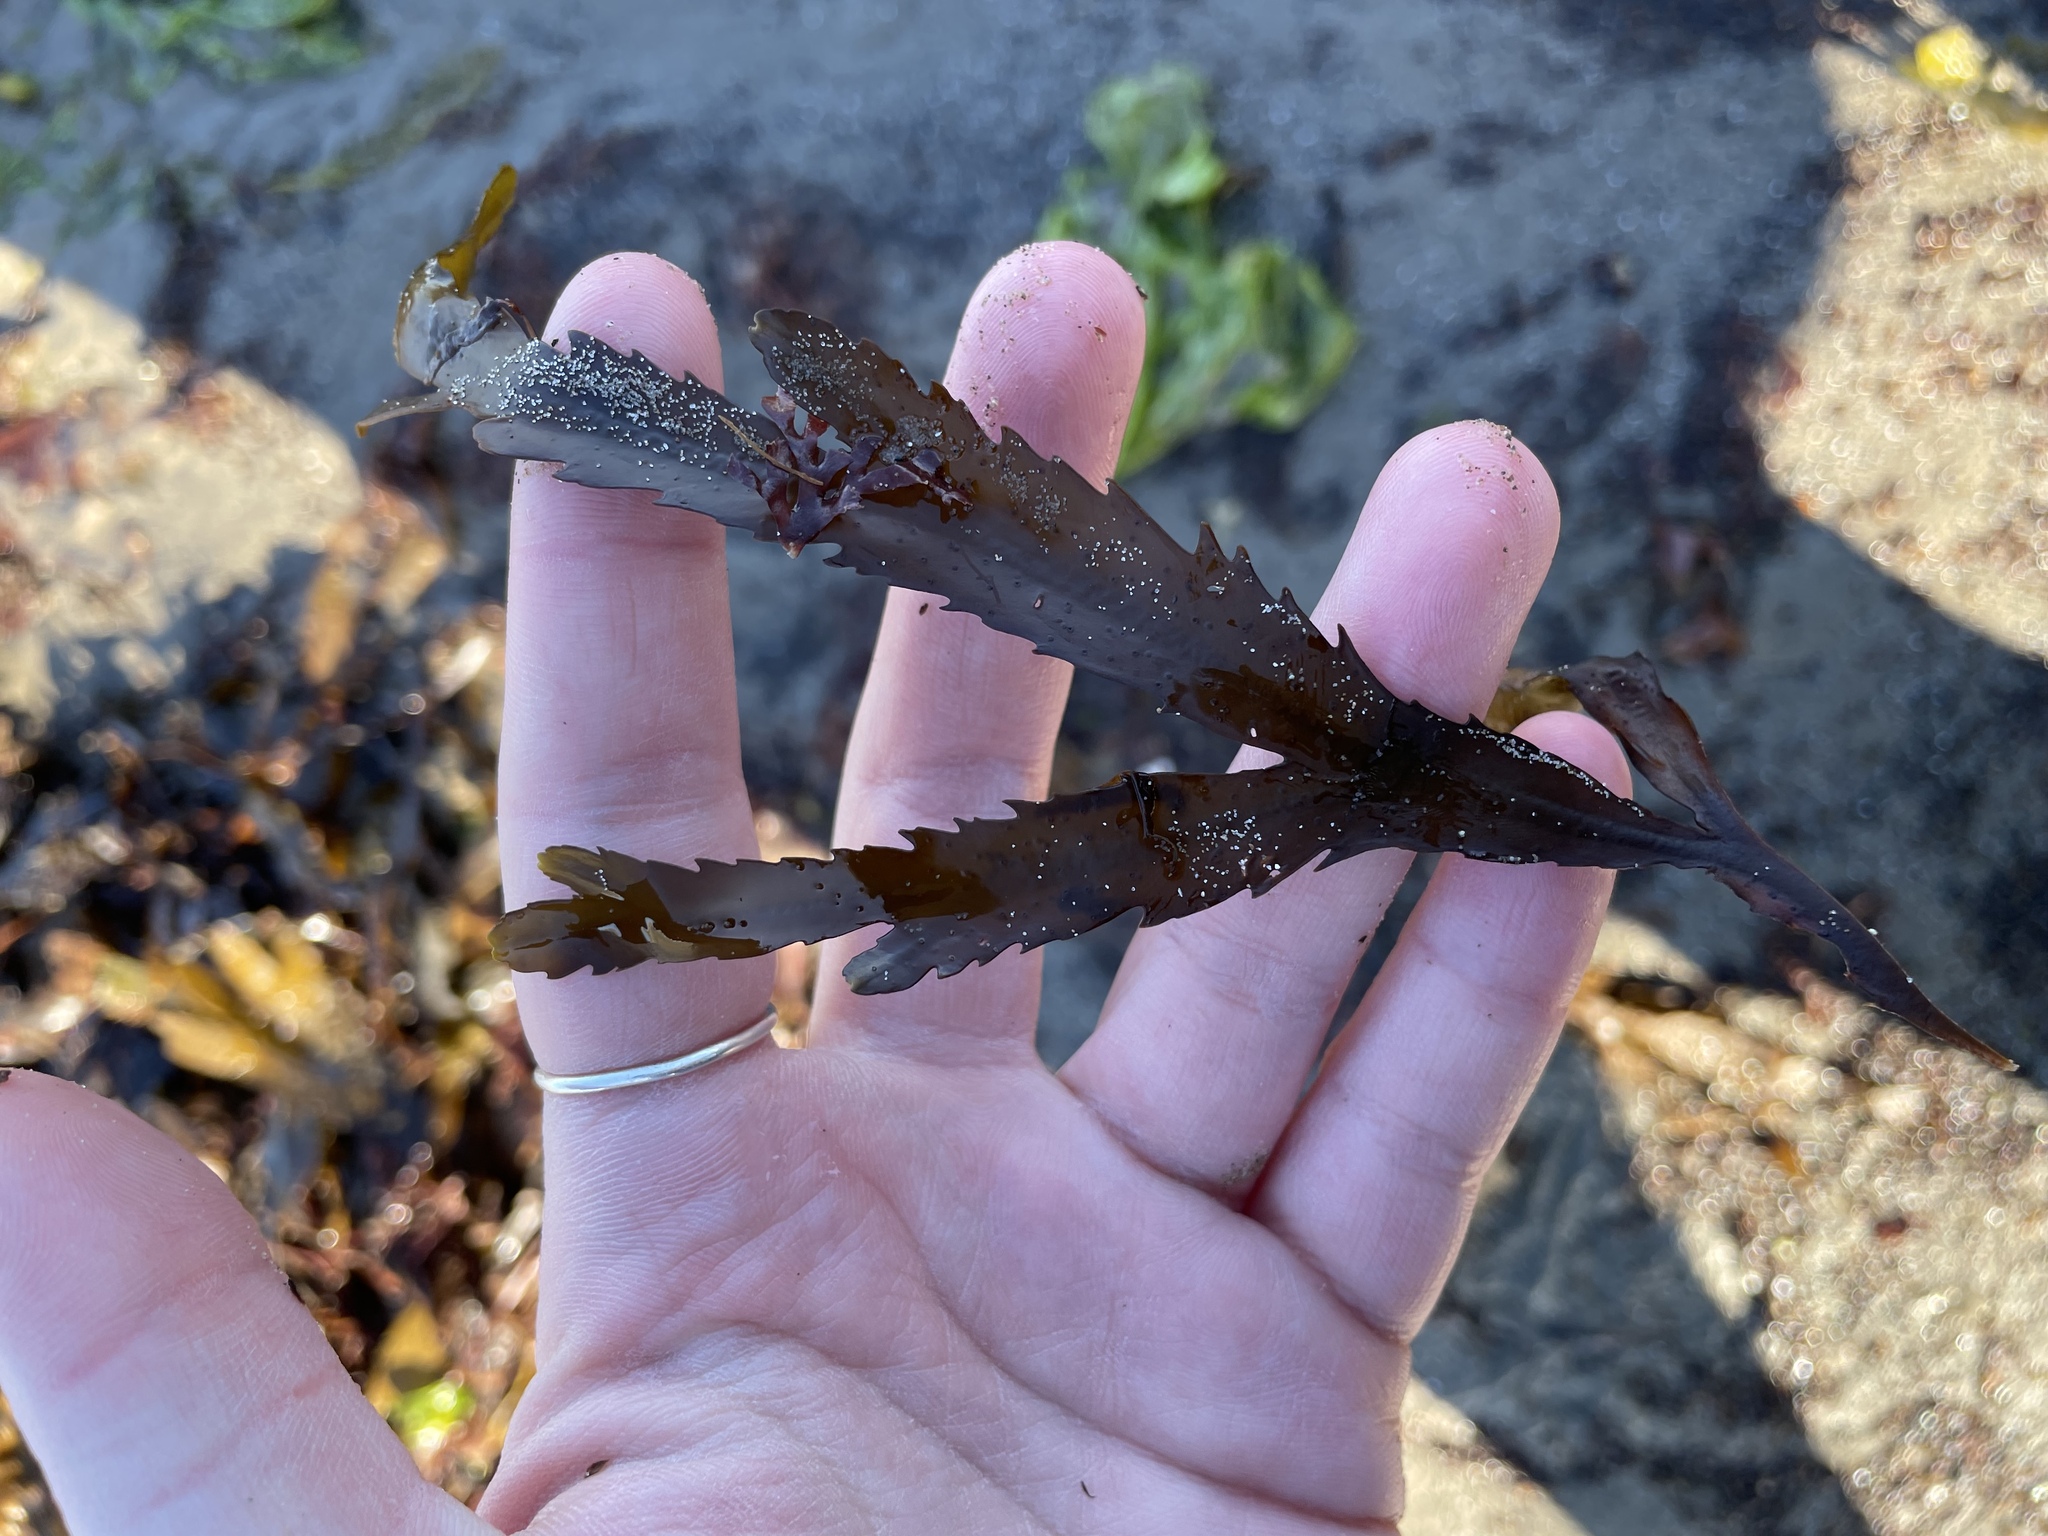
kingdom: Chromista
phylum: Ochrophyta
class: Phaeophyceae
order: Fucales
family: Fucaceae
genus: Fucus
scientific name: Fucus serratus
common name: Toothed wrack
